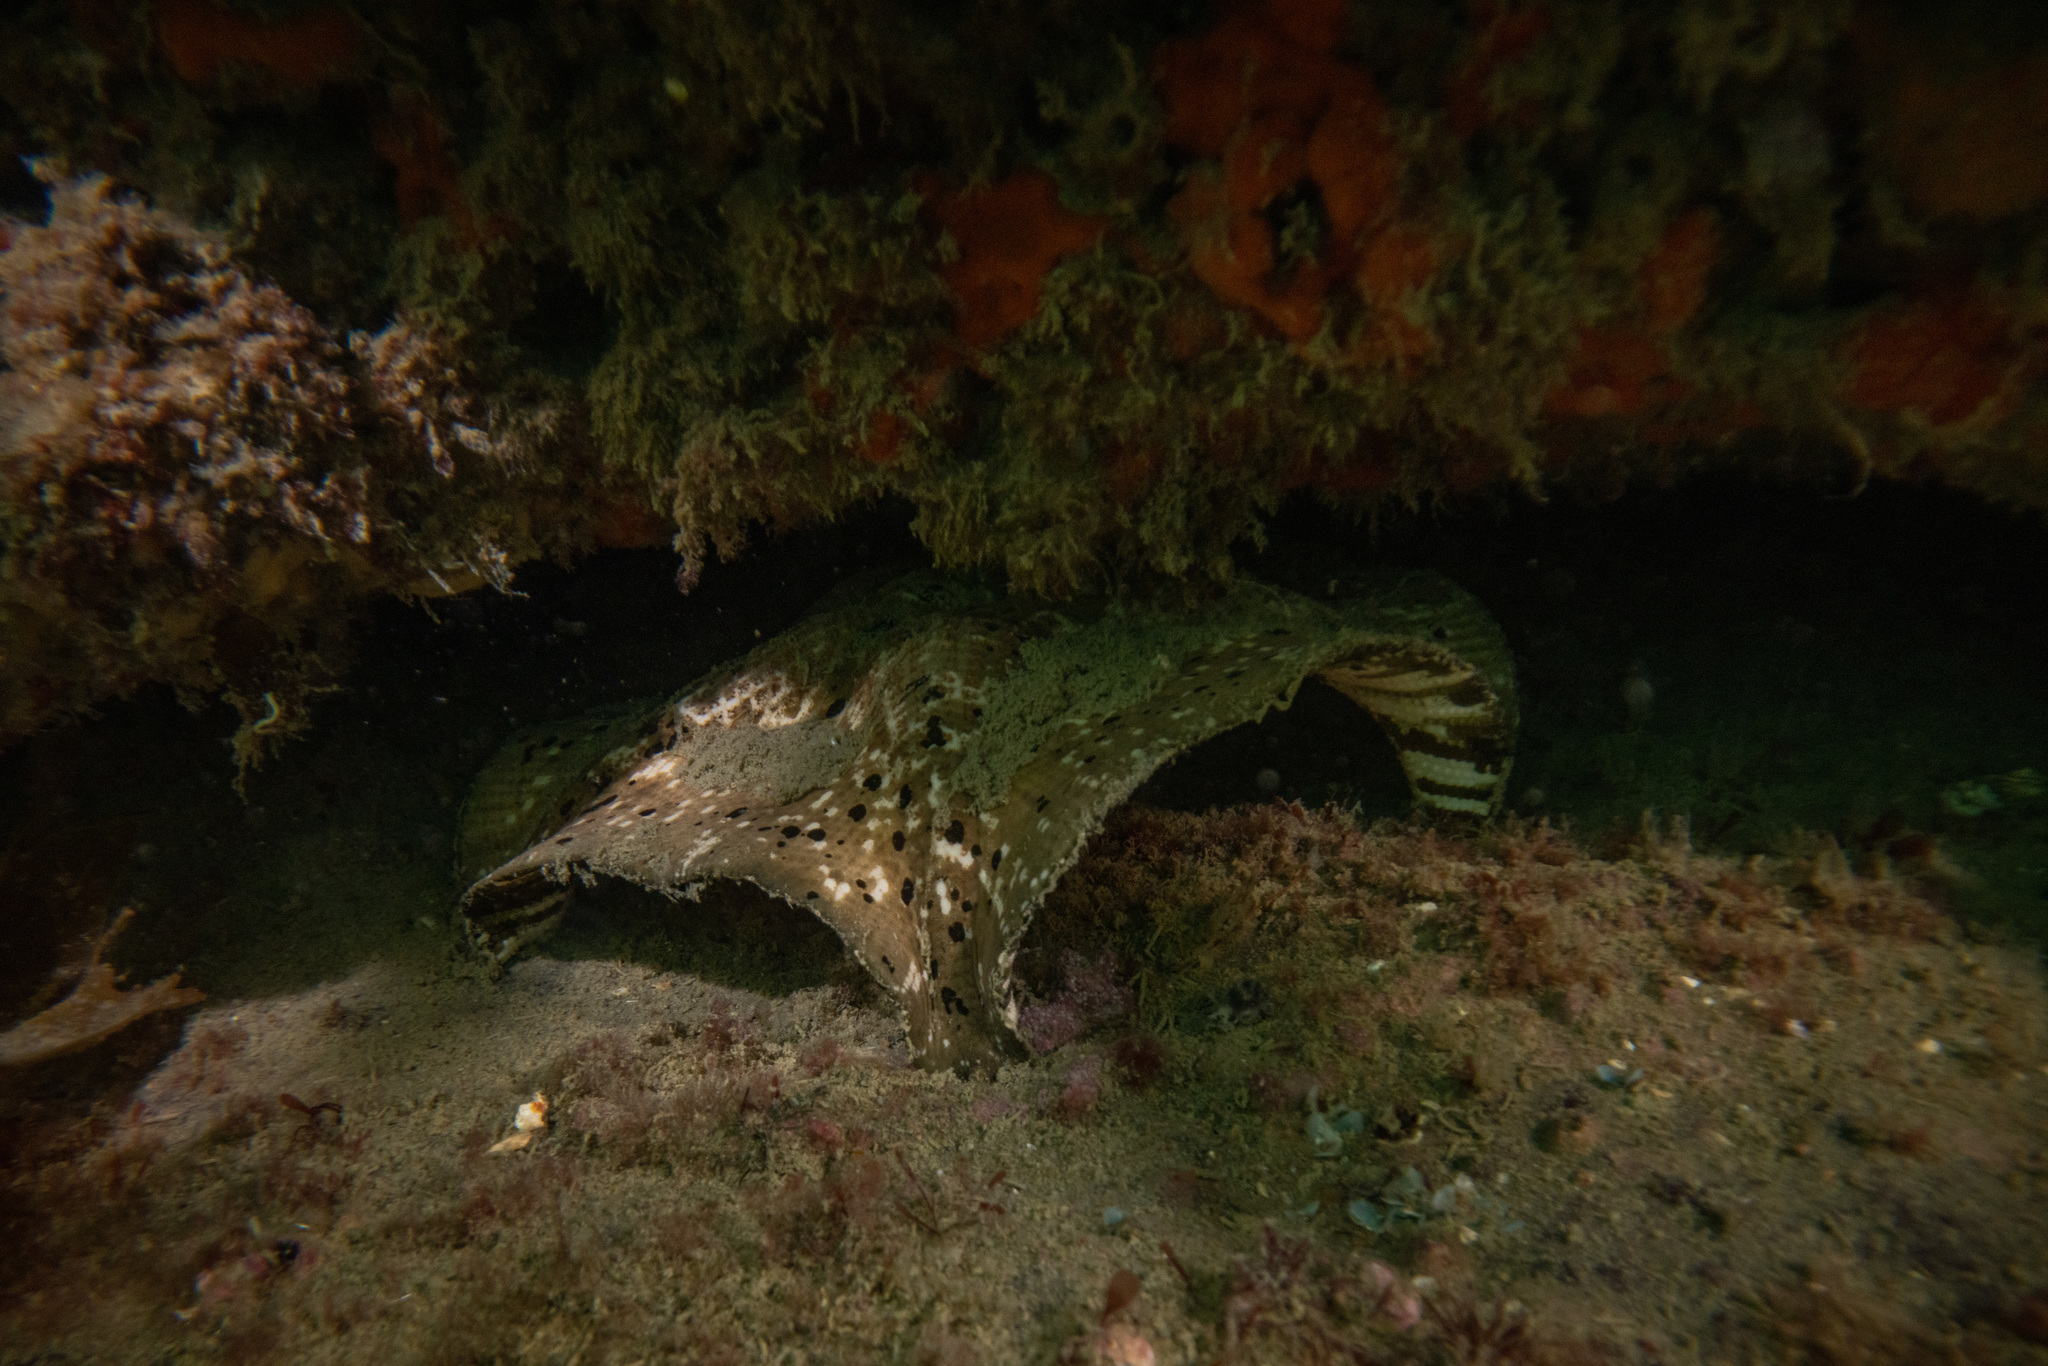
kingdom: Animalia
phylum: Echinodermata
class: Asteroidea
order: Valvatida
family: Asterinidae
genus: Stegnaster
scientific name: Stegnaster inflatus
